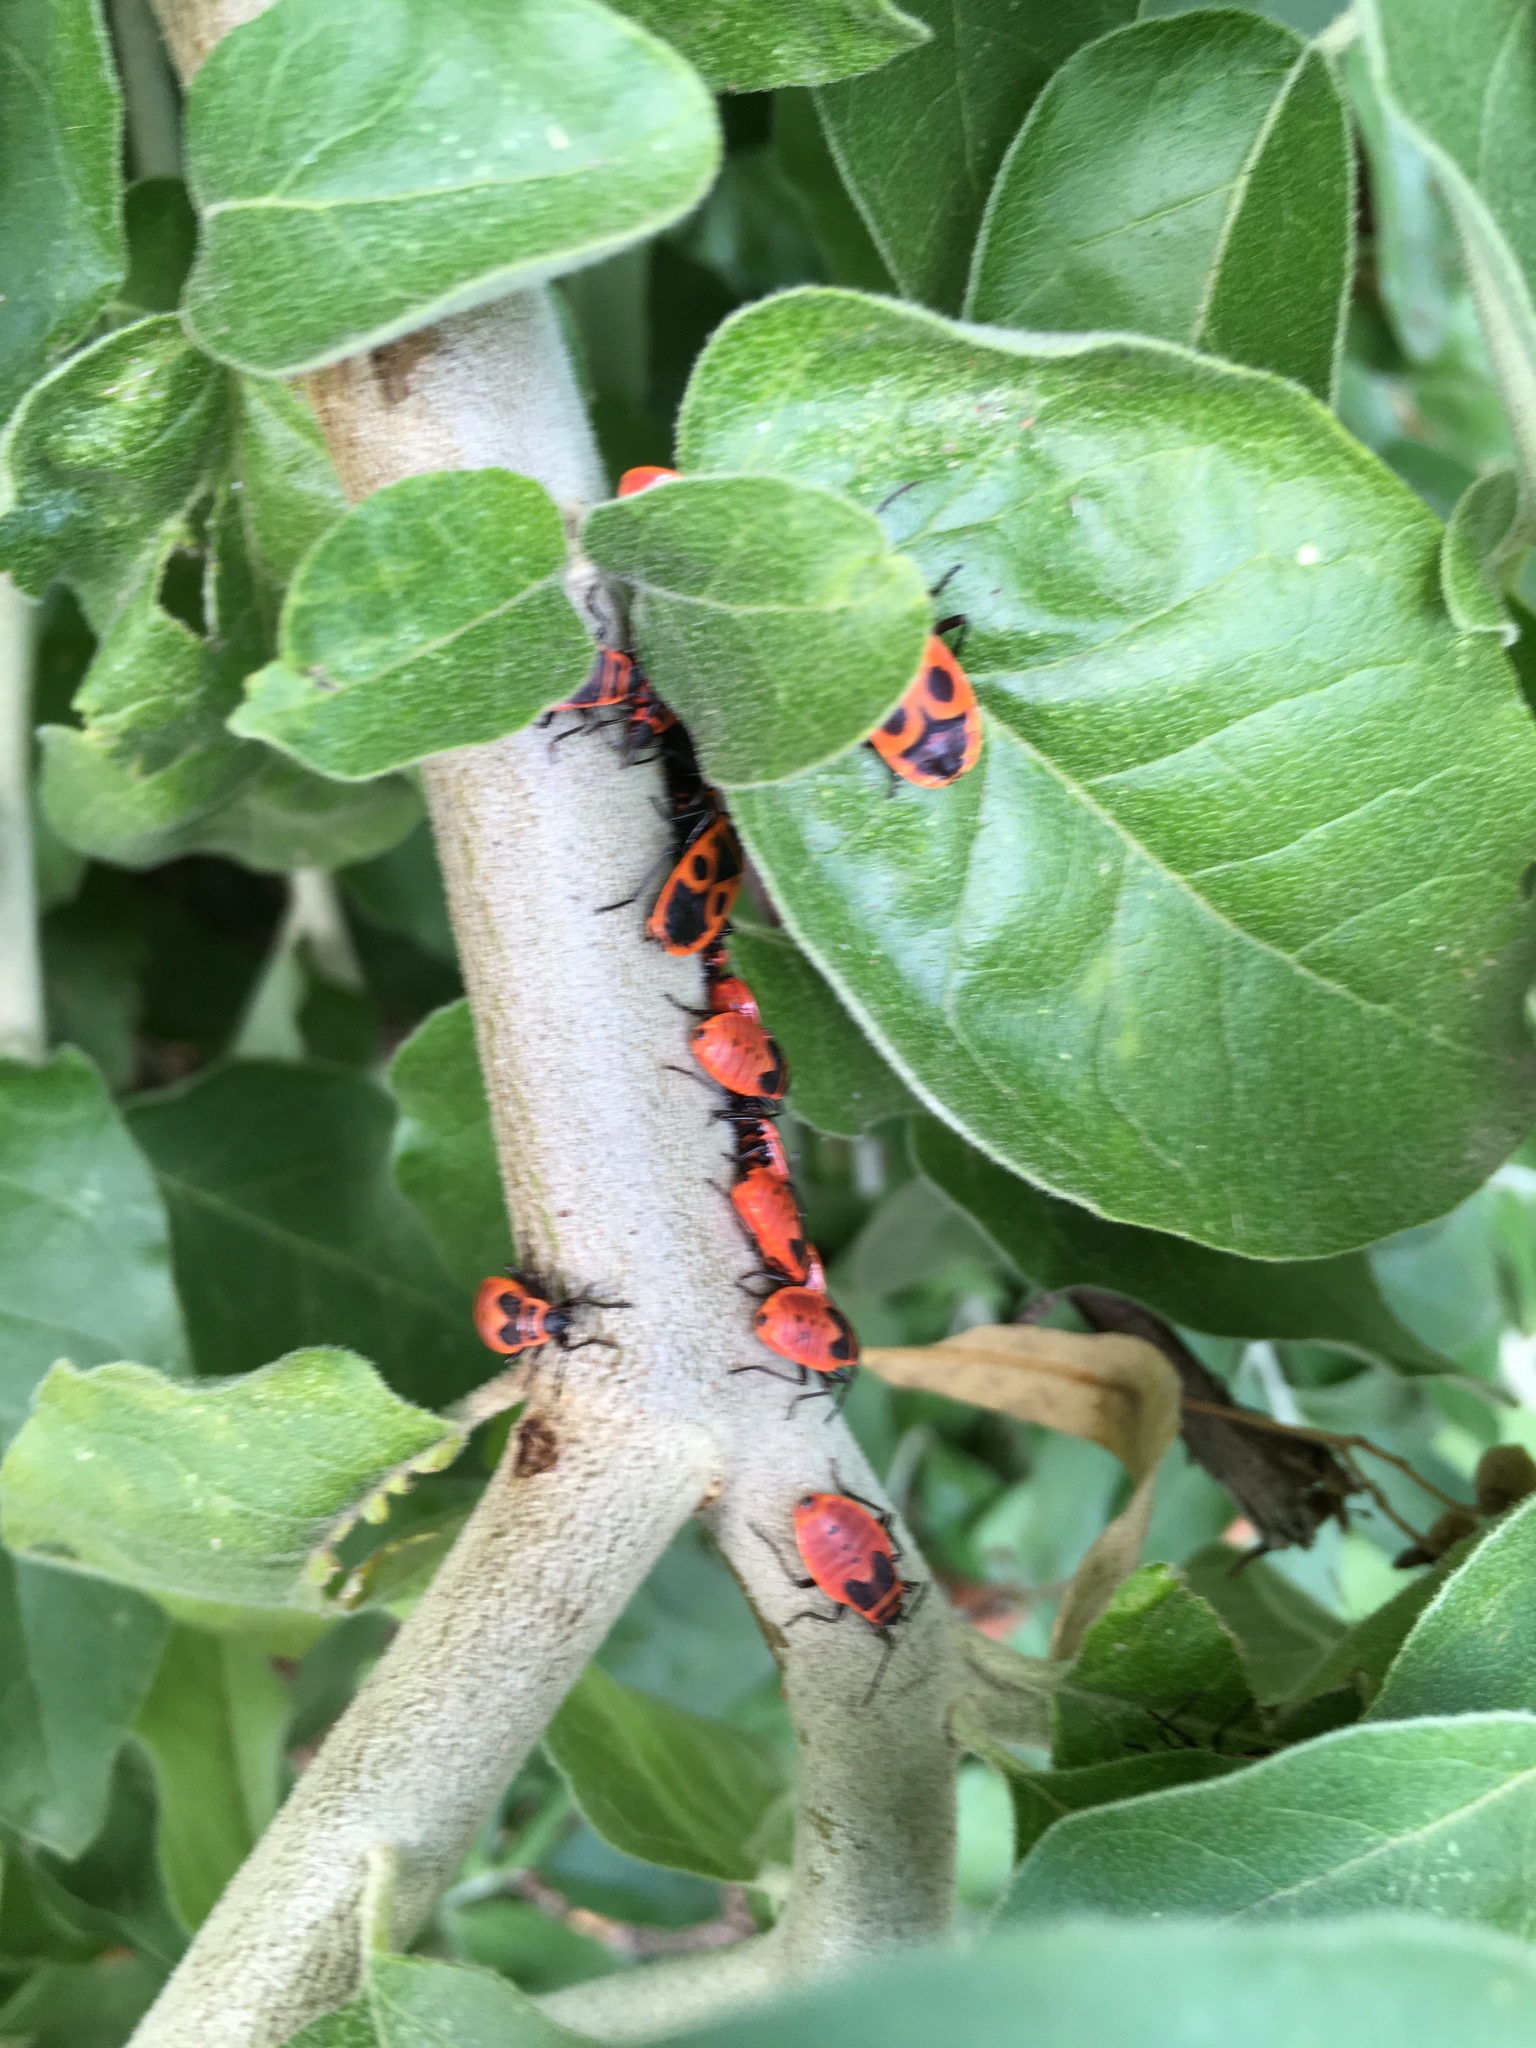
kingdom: Animalia
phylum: Arthropoda
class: Insecta
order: Hemiptera
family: Pyrrhocoridae
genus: Pyrrhocoris
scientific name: Pyrrhocoris apterus
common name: Firebug
